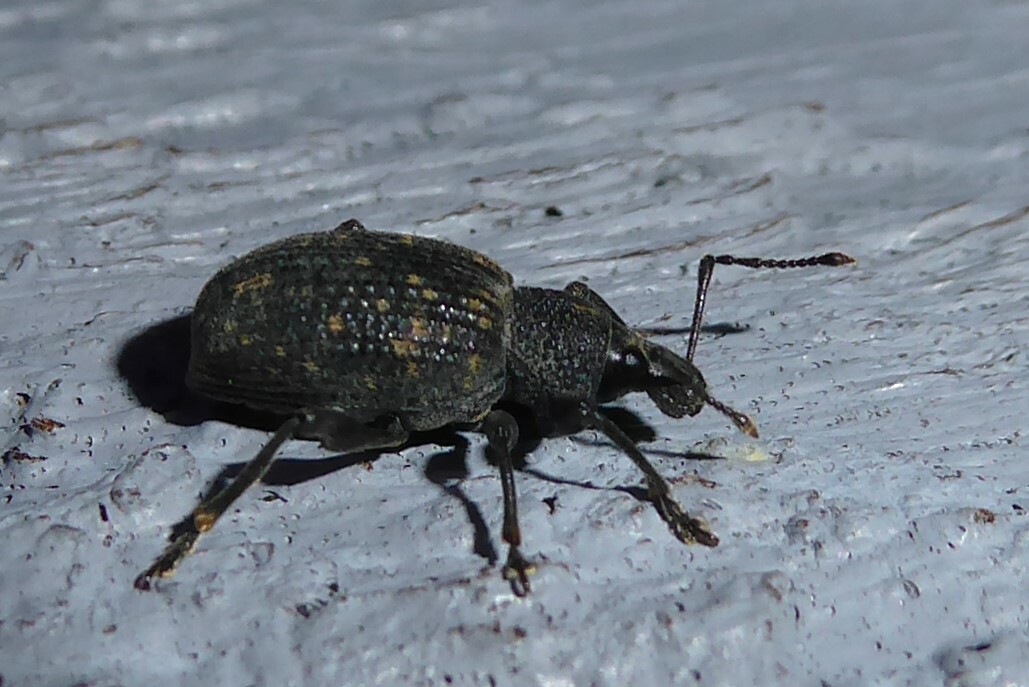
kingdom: Animalia
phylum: Arthropoda
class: Insecta
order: Coleoptera
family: Curculionidae
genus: Otiorhynchus
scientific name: Otiorhynchus sulcatus
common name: Black vine weevil
